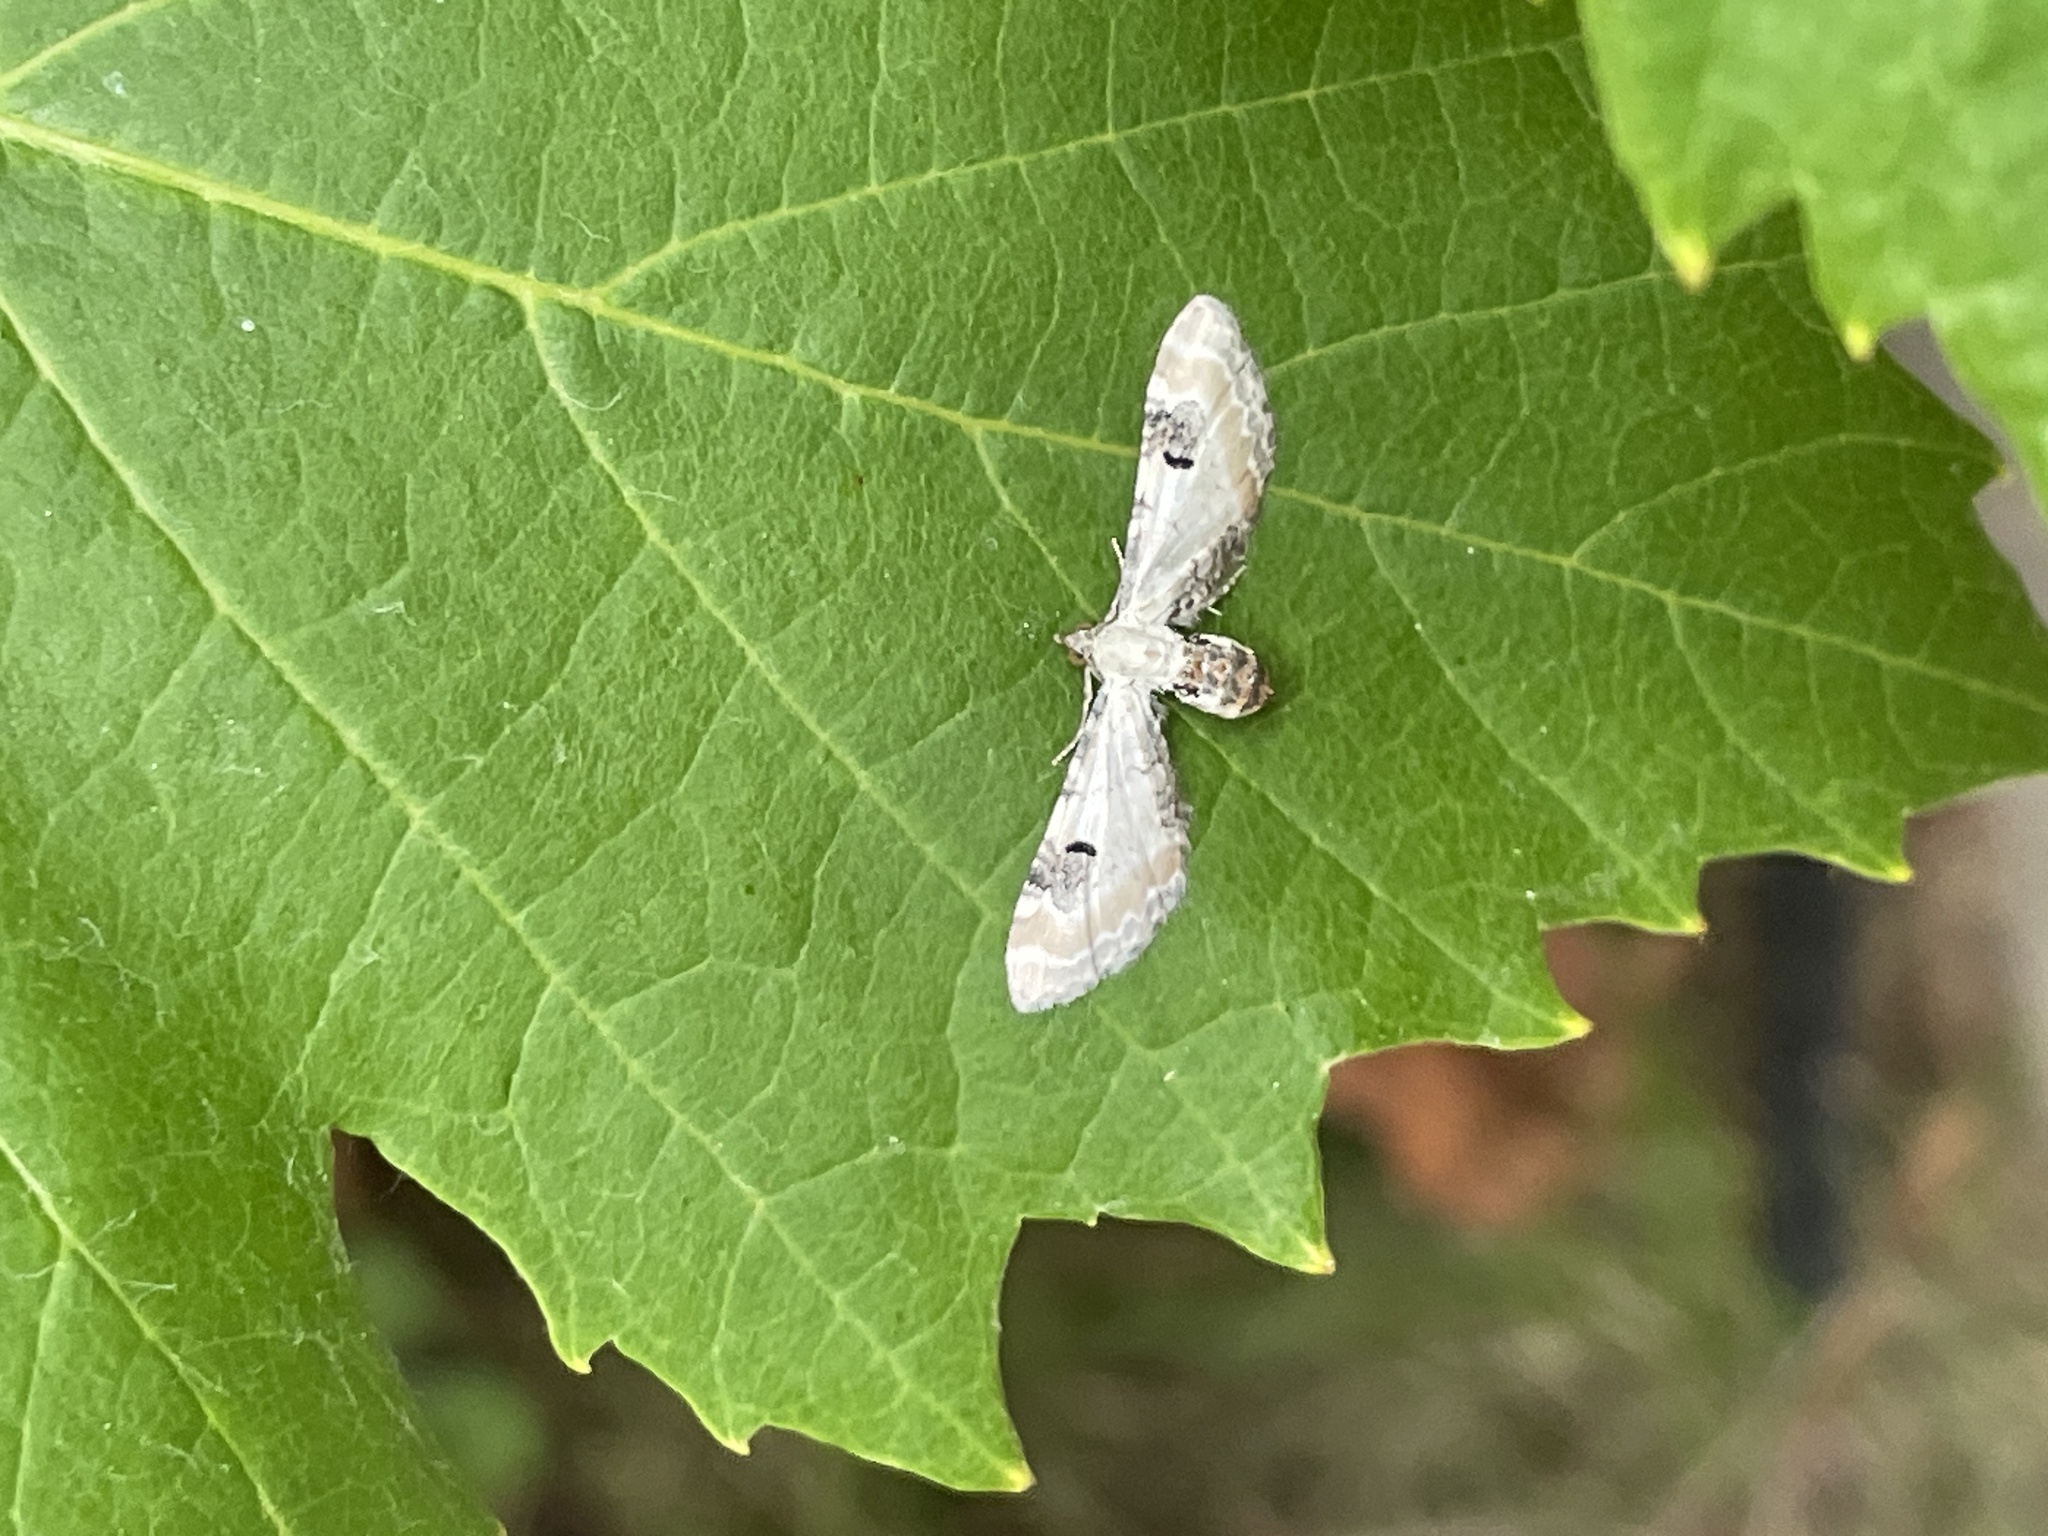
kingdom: Animalia
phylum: Arthropoda
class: Insecta
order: Lepidoptera
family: Geometridae
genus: Eupithecia
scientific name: Eupithecia centaureata
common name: Lime-speck pug
